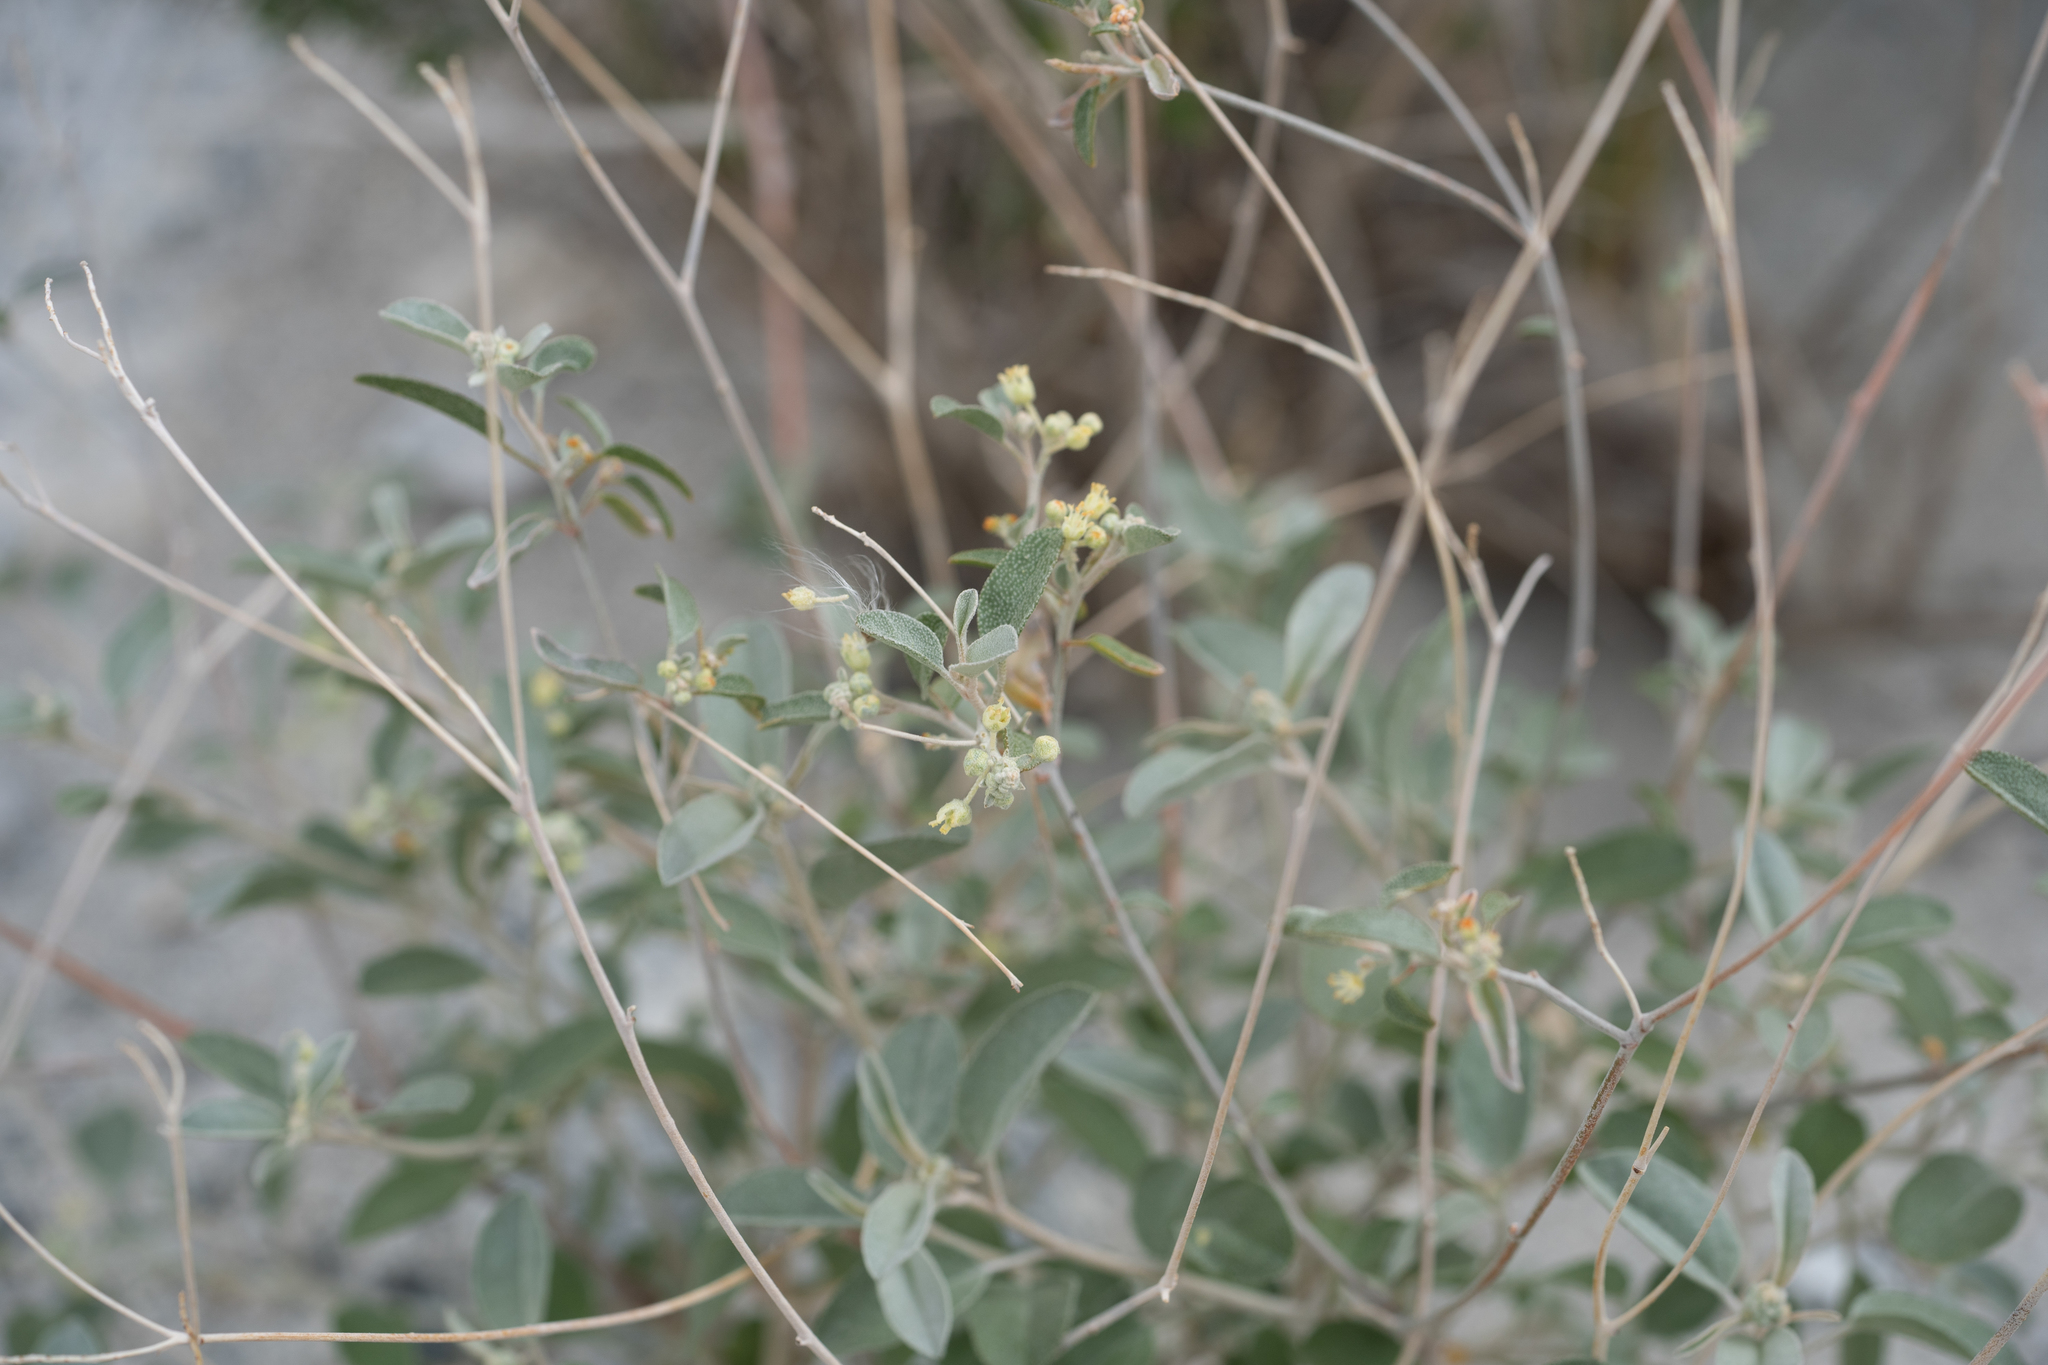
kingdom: Plantae
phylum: Tracheophyta
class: Magnoliopsida
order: Malpighiales
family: Euphorbiaceae
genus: Croton
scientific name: Croton californicus
